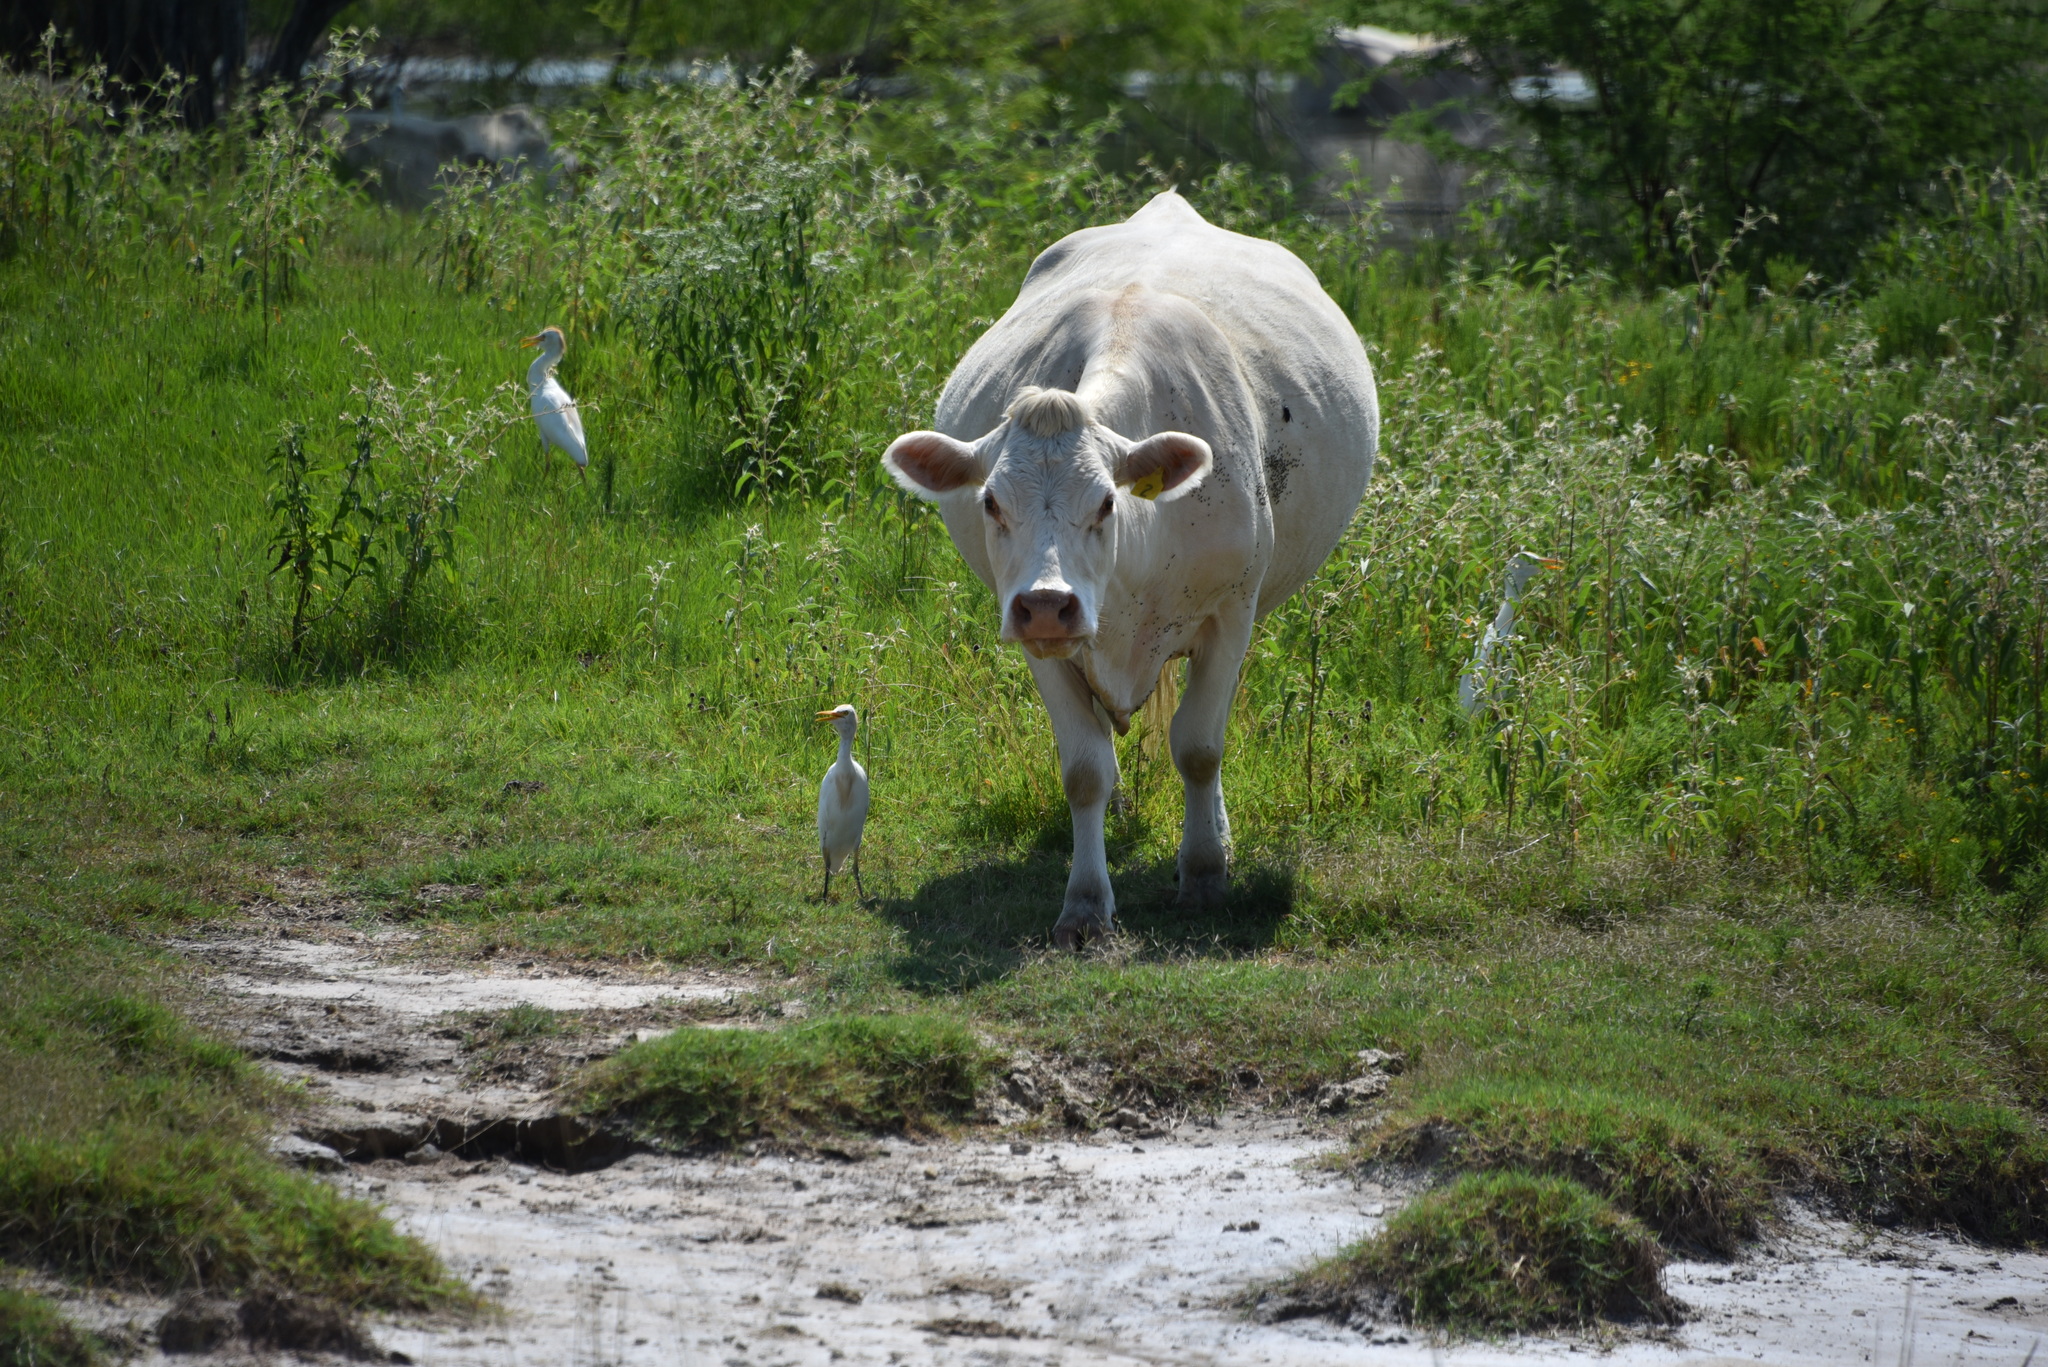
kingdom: Animalia
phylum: Chordata
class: Aves
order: Pelecaniformes
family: Ardeidae
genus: Bubulcus
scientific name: Bubulcus ibis
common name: Cattle egret
